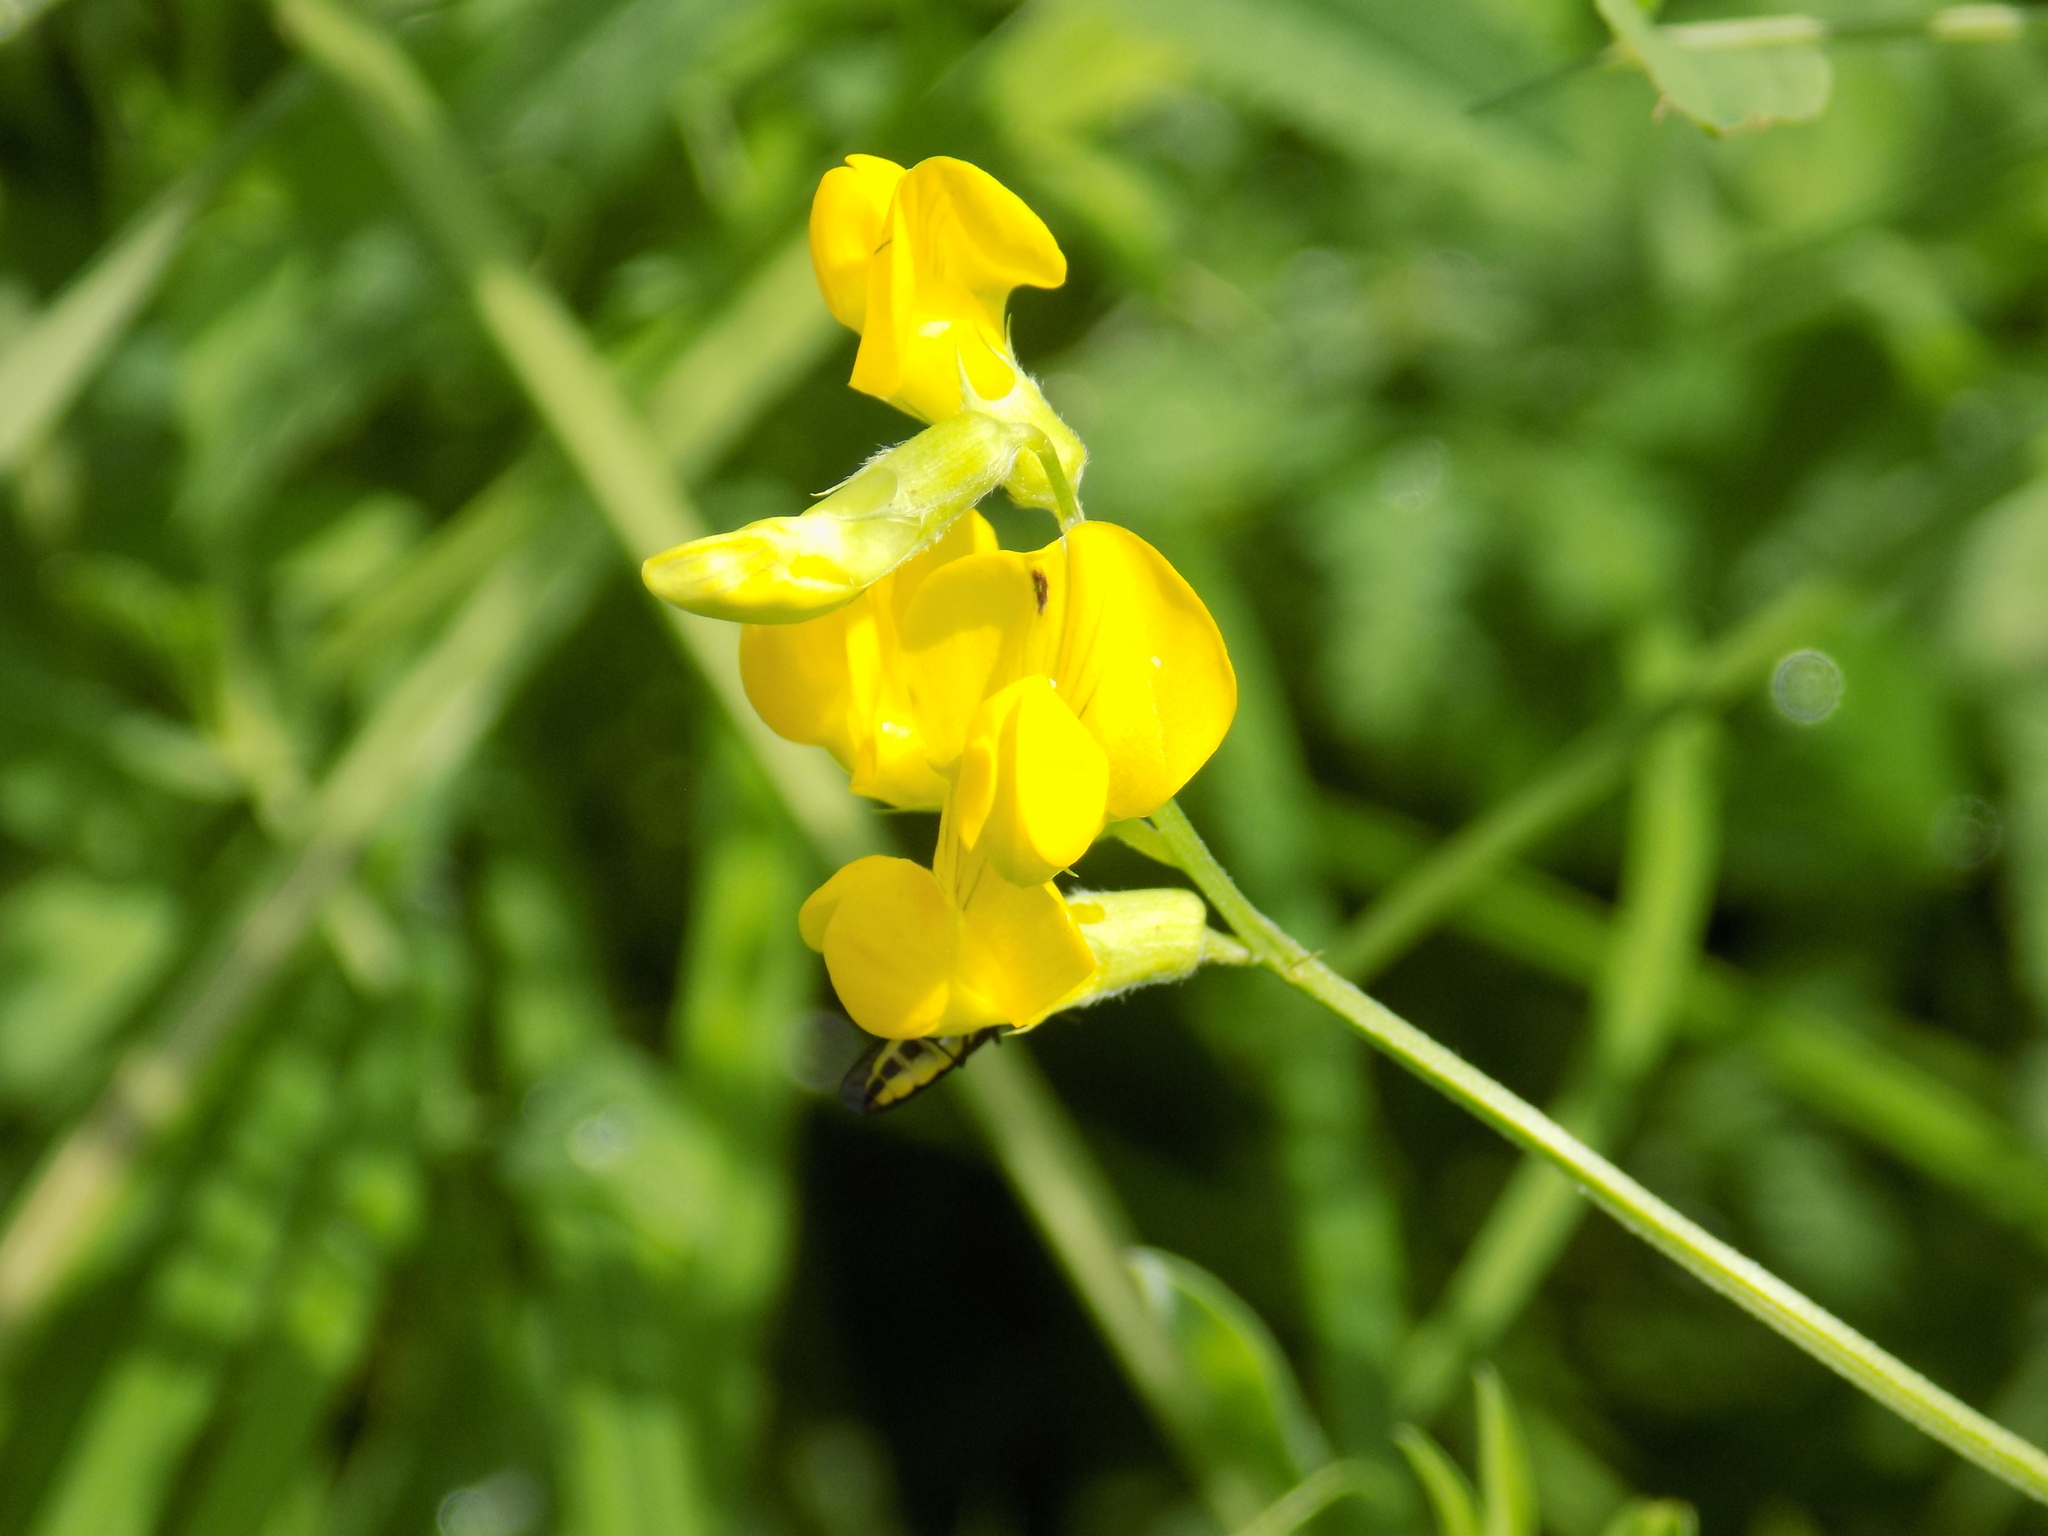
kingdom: Plantae
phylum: Tracheophyta
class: Magnoliopsida
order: Fabales
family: Fabaceae
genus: Lathyrus
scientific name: Lathyrus pratensis
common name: Meadow vetchling
